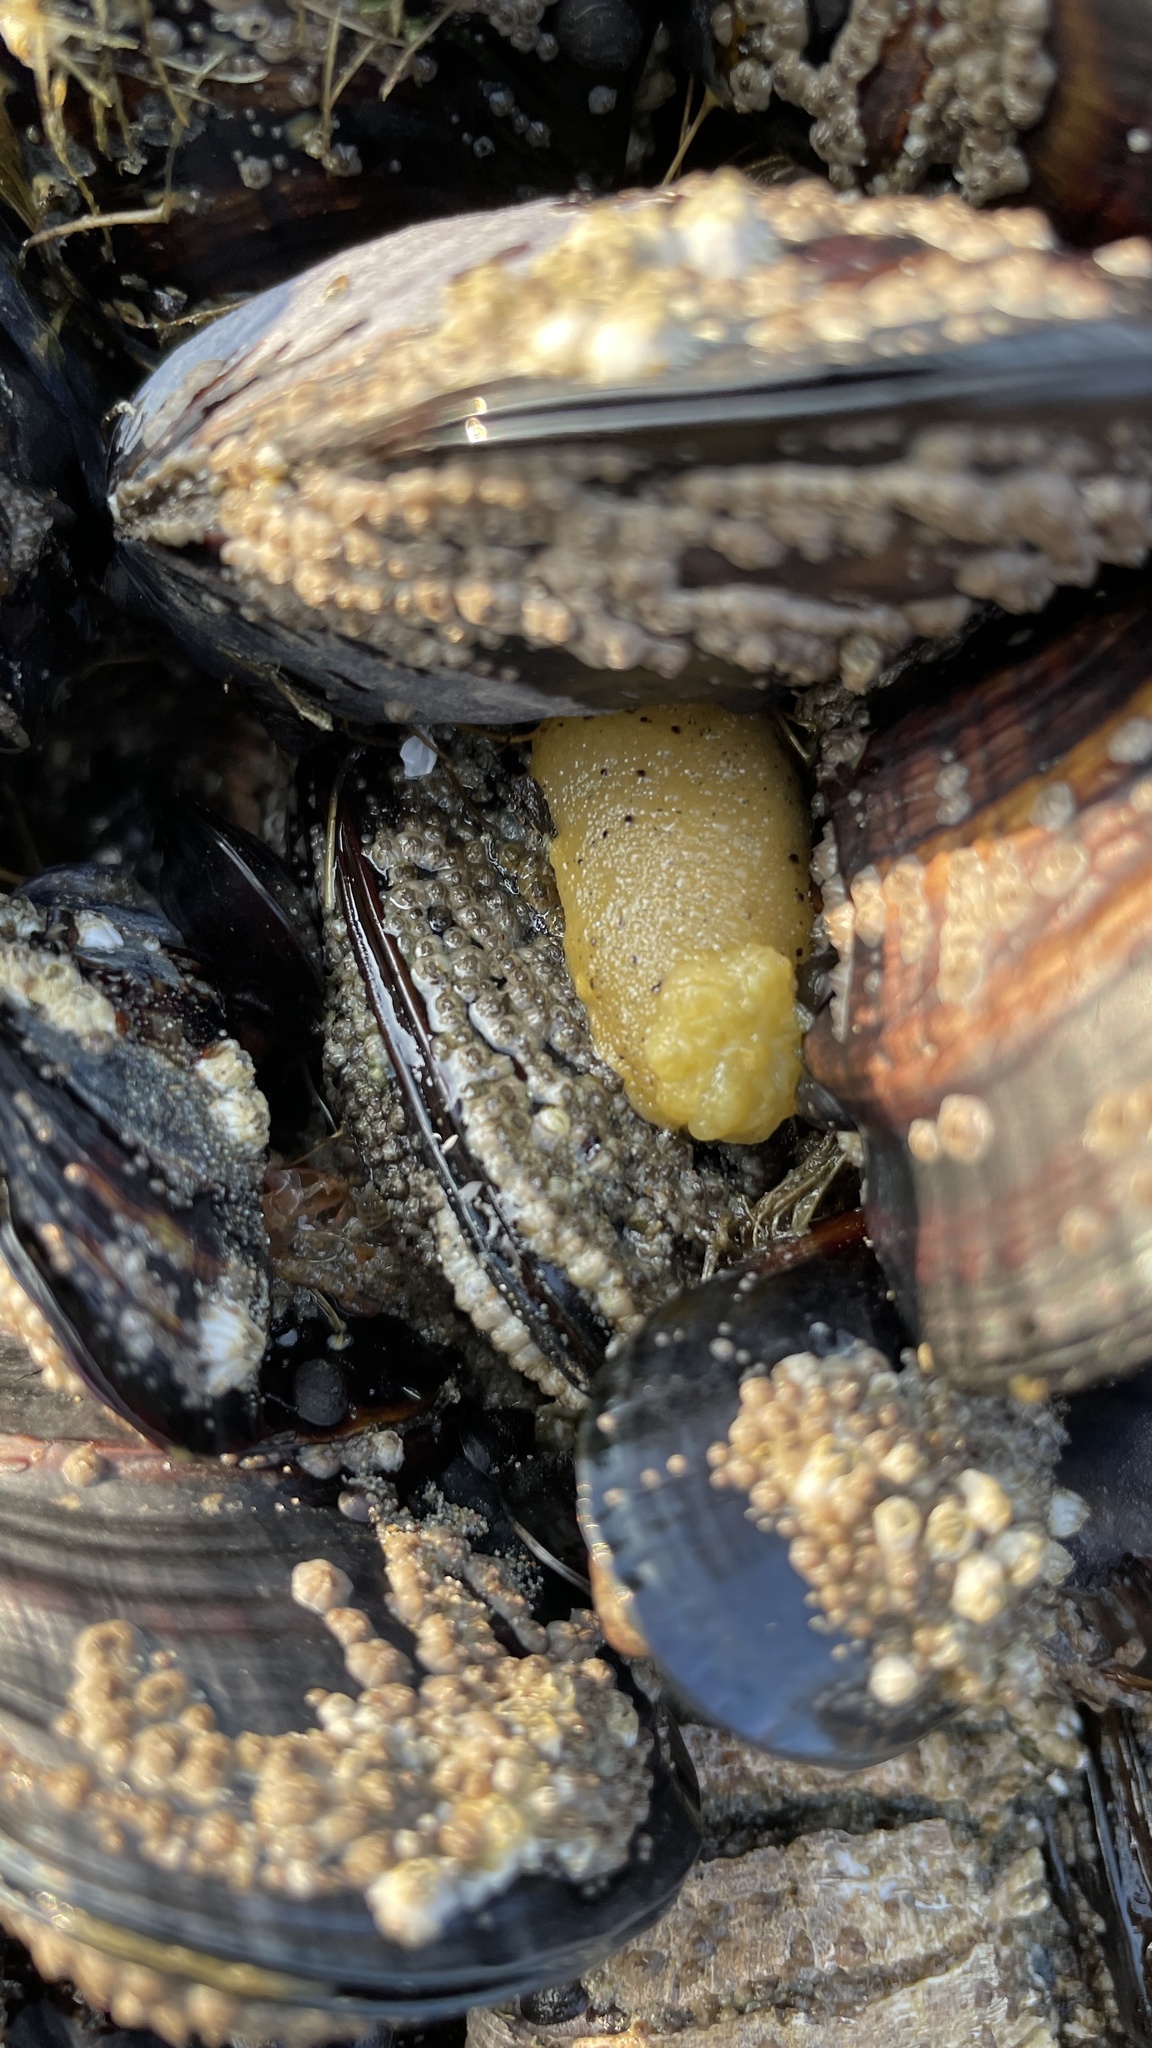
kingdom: Animalia
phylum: Mollusca
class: Gastropoda
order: Nudibranchia
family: Dorididae
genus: Doris
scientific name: Doris montereyensis
